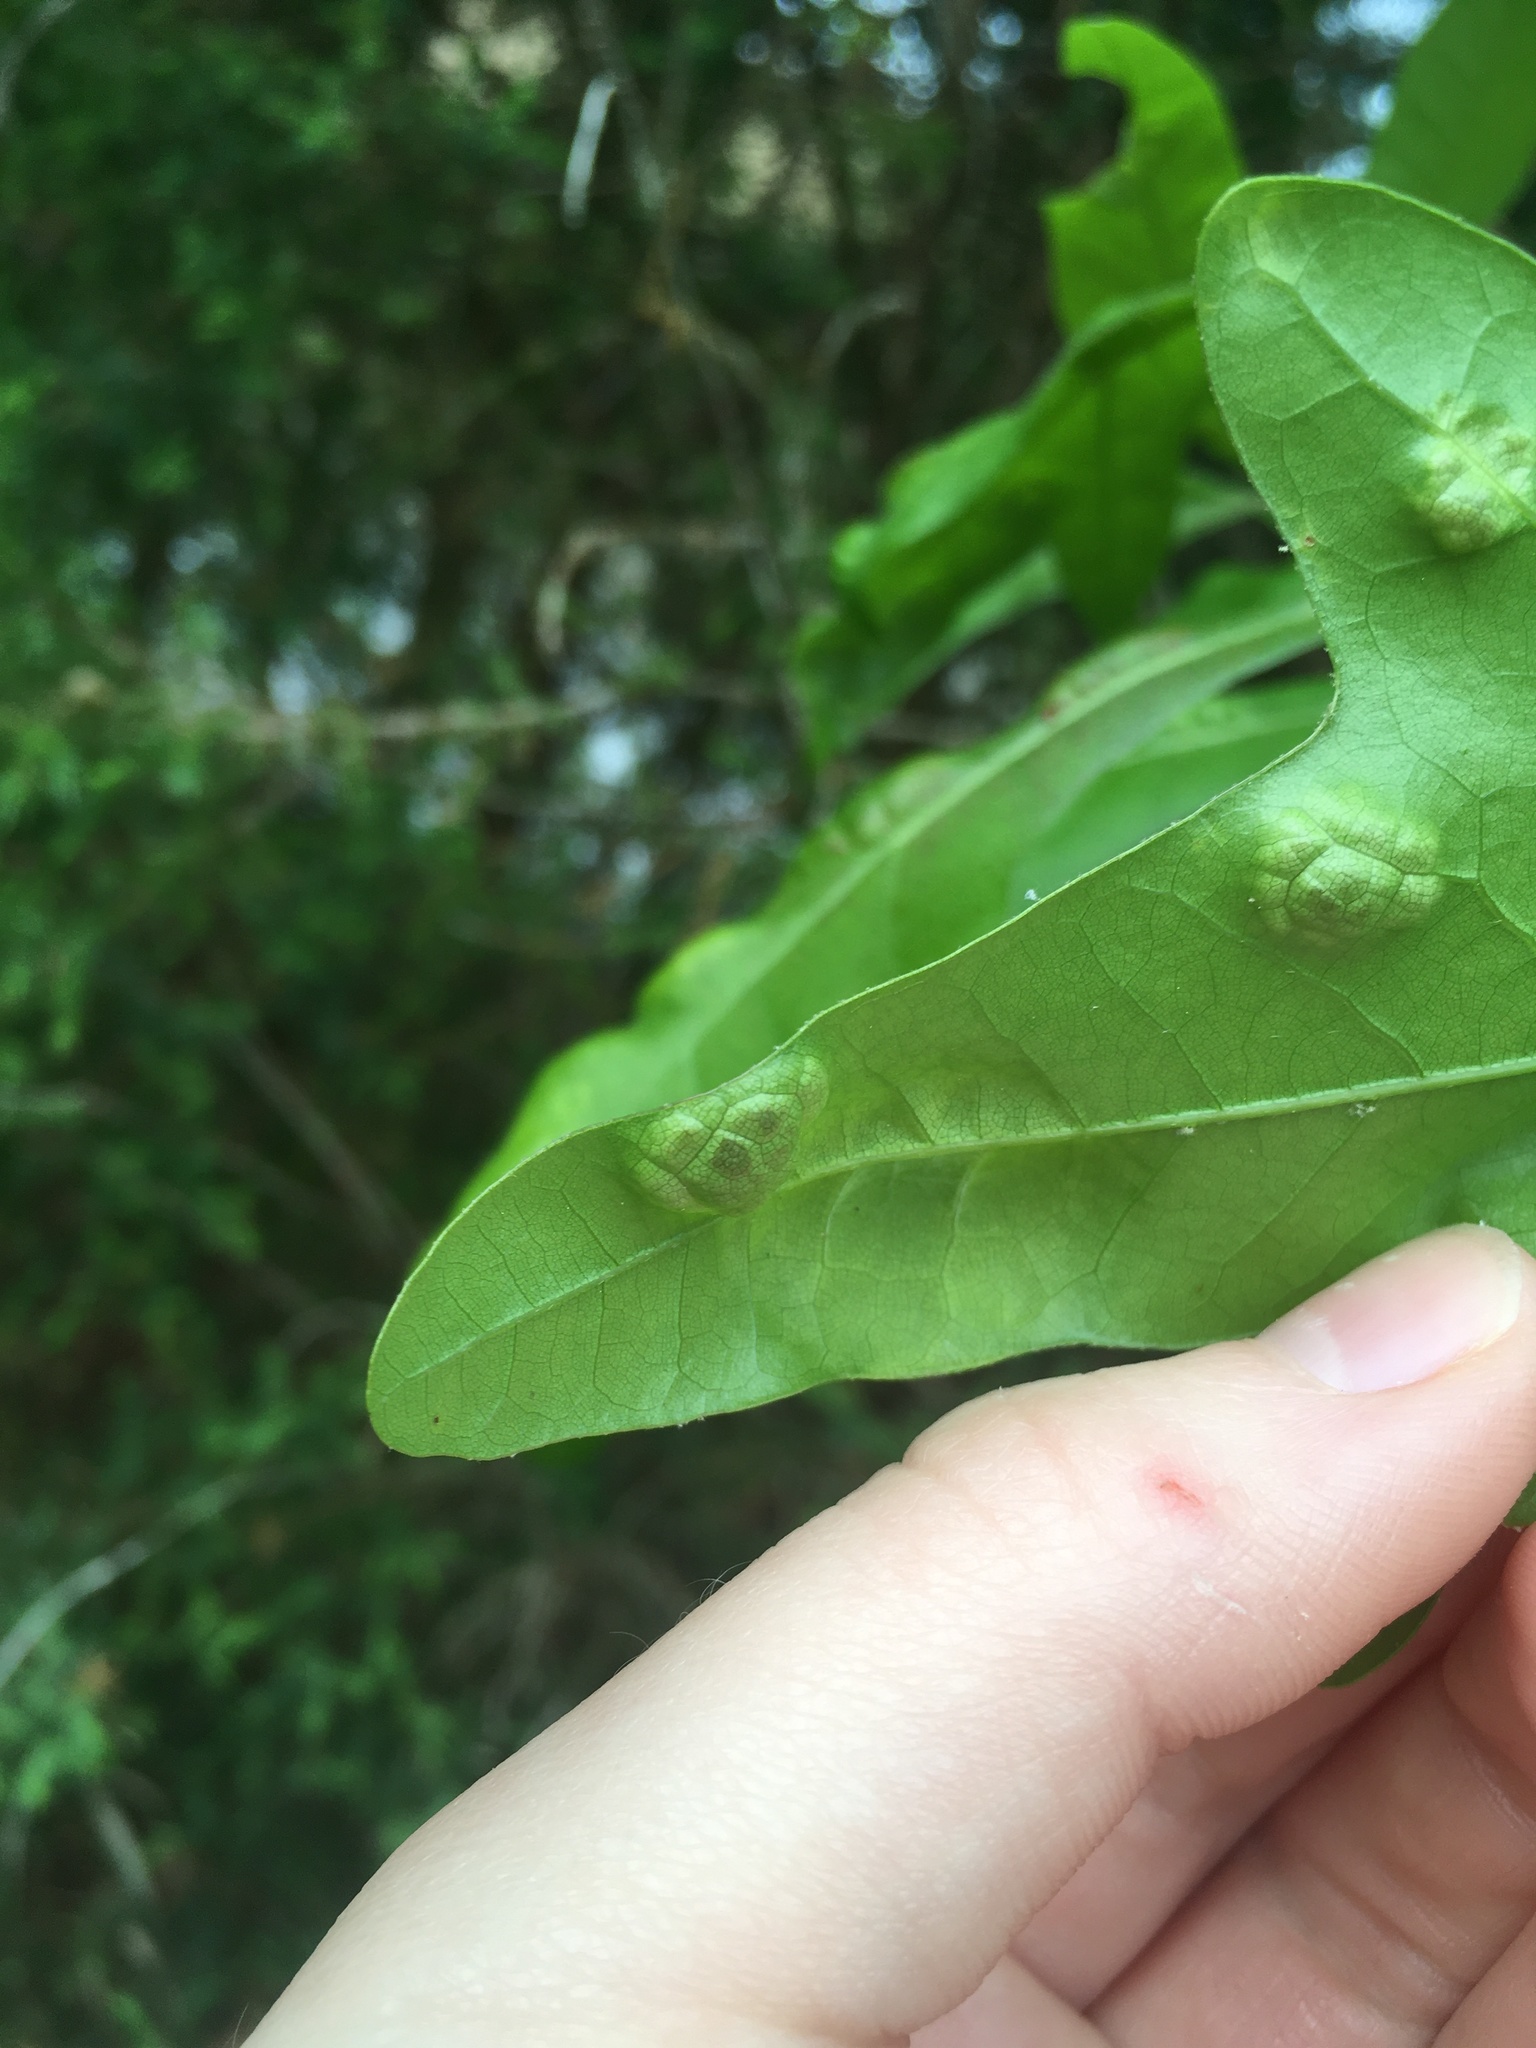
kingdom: Fungi
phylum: Ascomycota
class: Taphrinomycetes
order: Taphrinales
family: Taphrinaceae
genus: Taphrina
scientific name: Taphrina caerulescens
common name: Oak leaf blister
